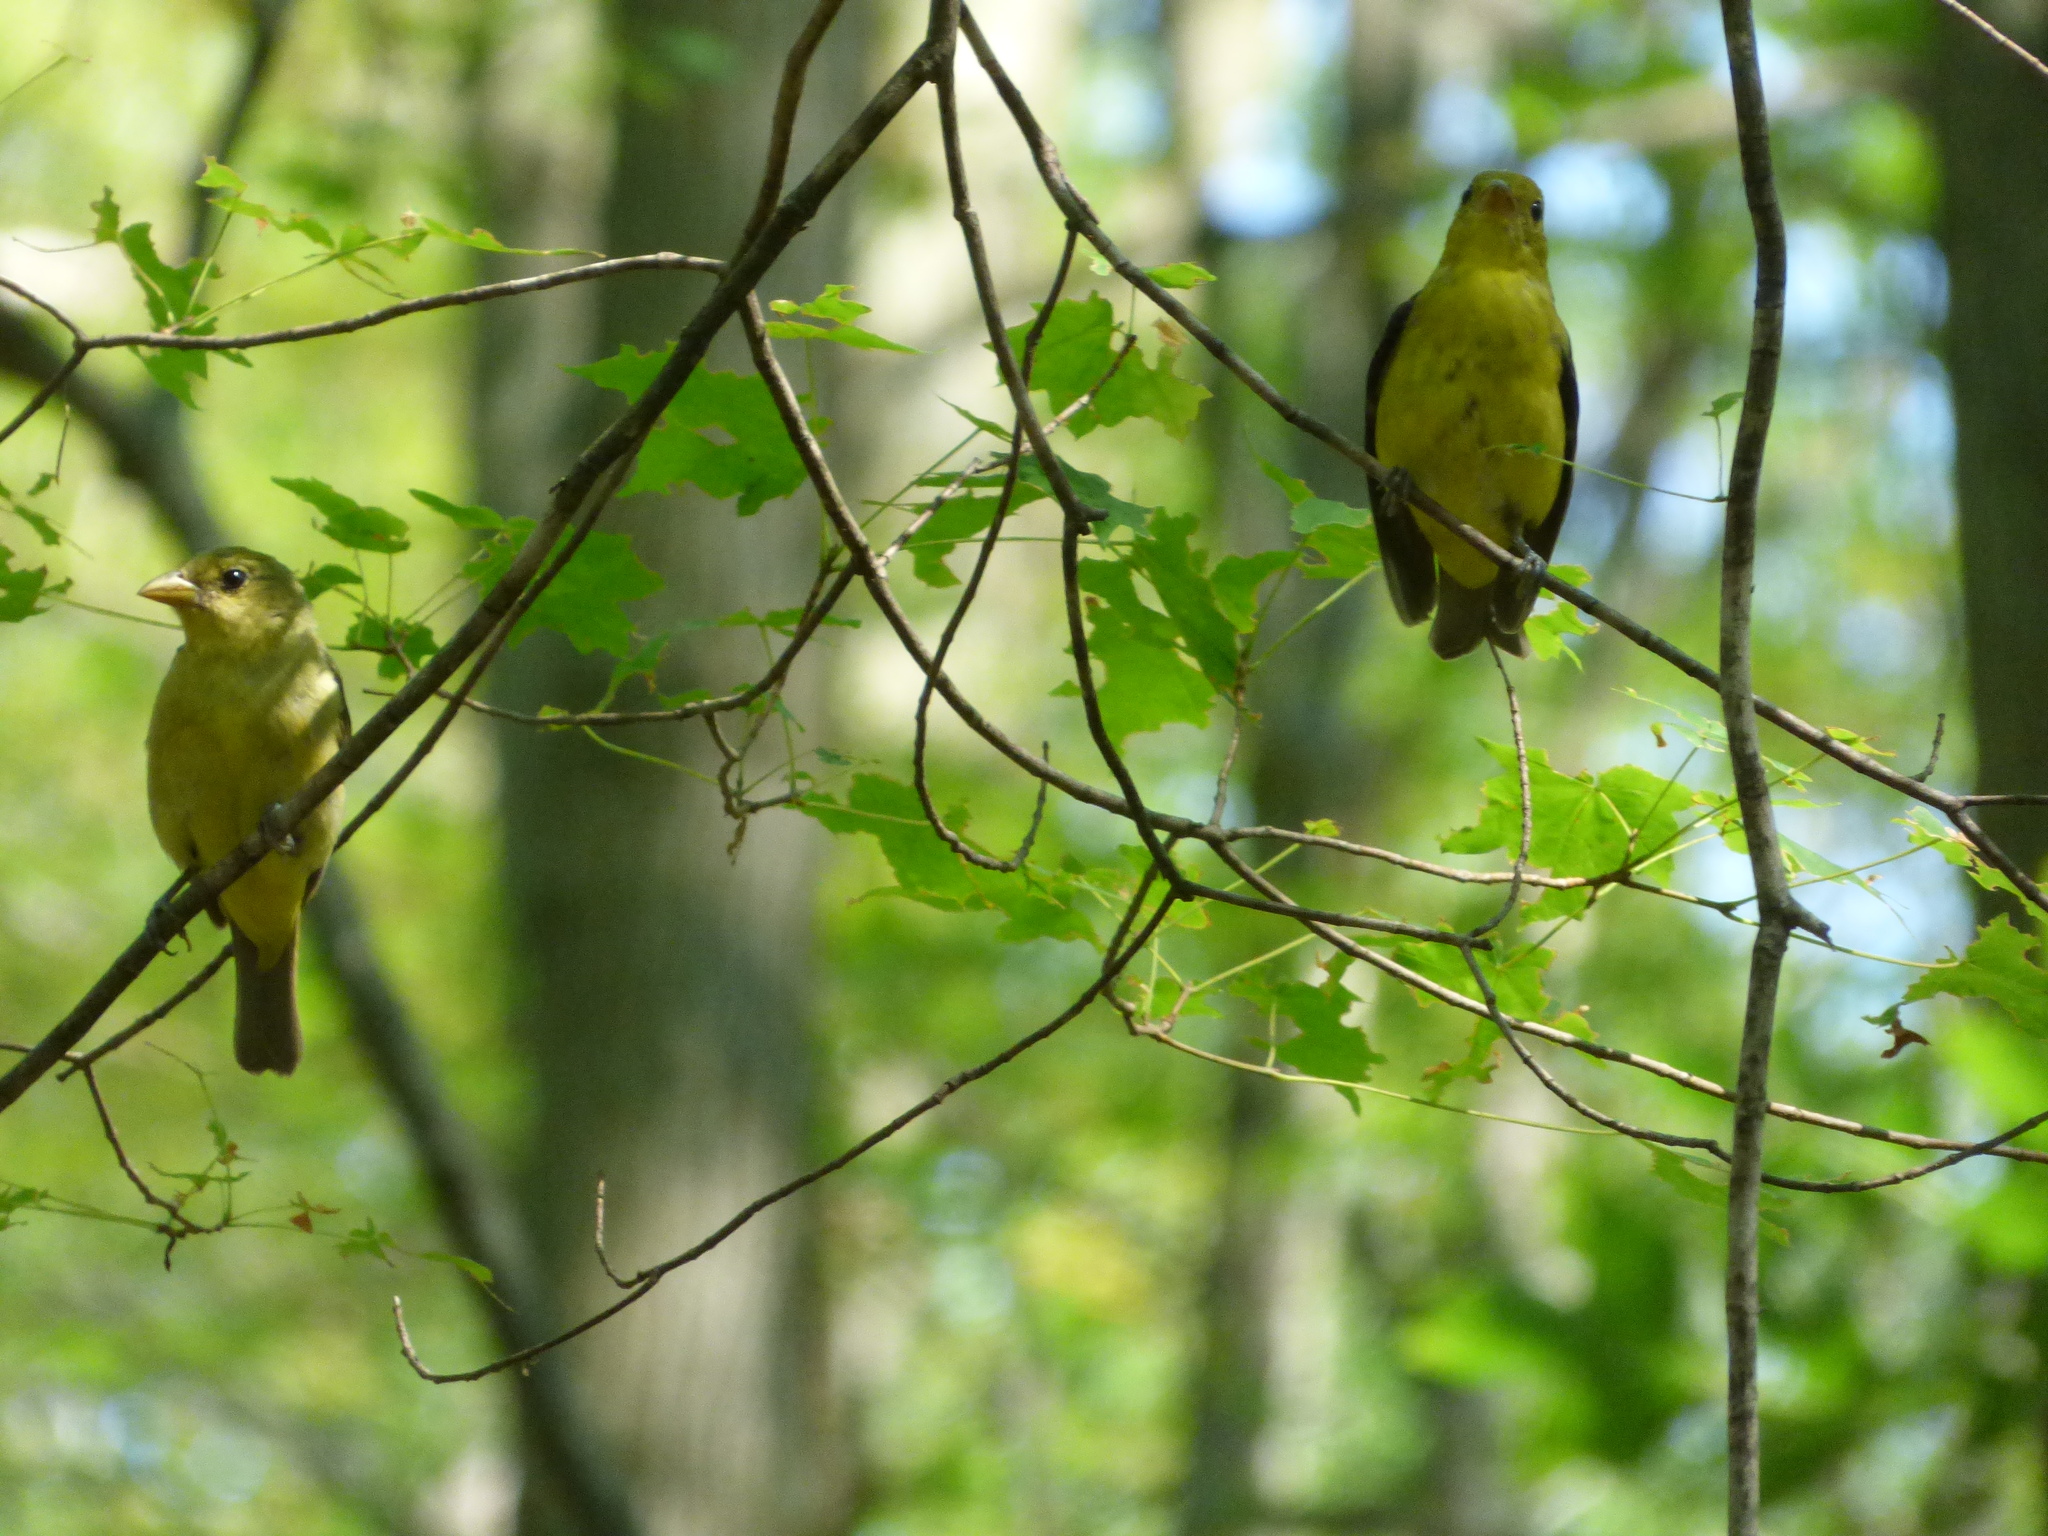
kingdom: Animalia
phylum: Chordata
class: Aves
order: Passeriformes
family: Cardinalidae
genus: Piranga
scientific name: Piranga olivacea
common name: Scarlet tanager
